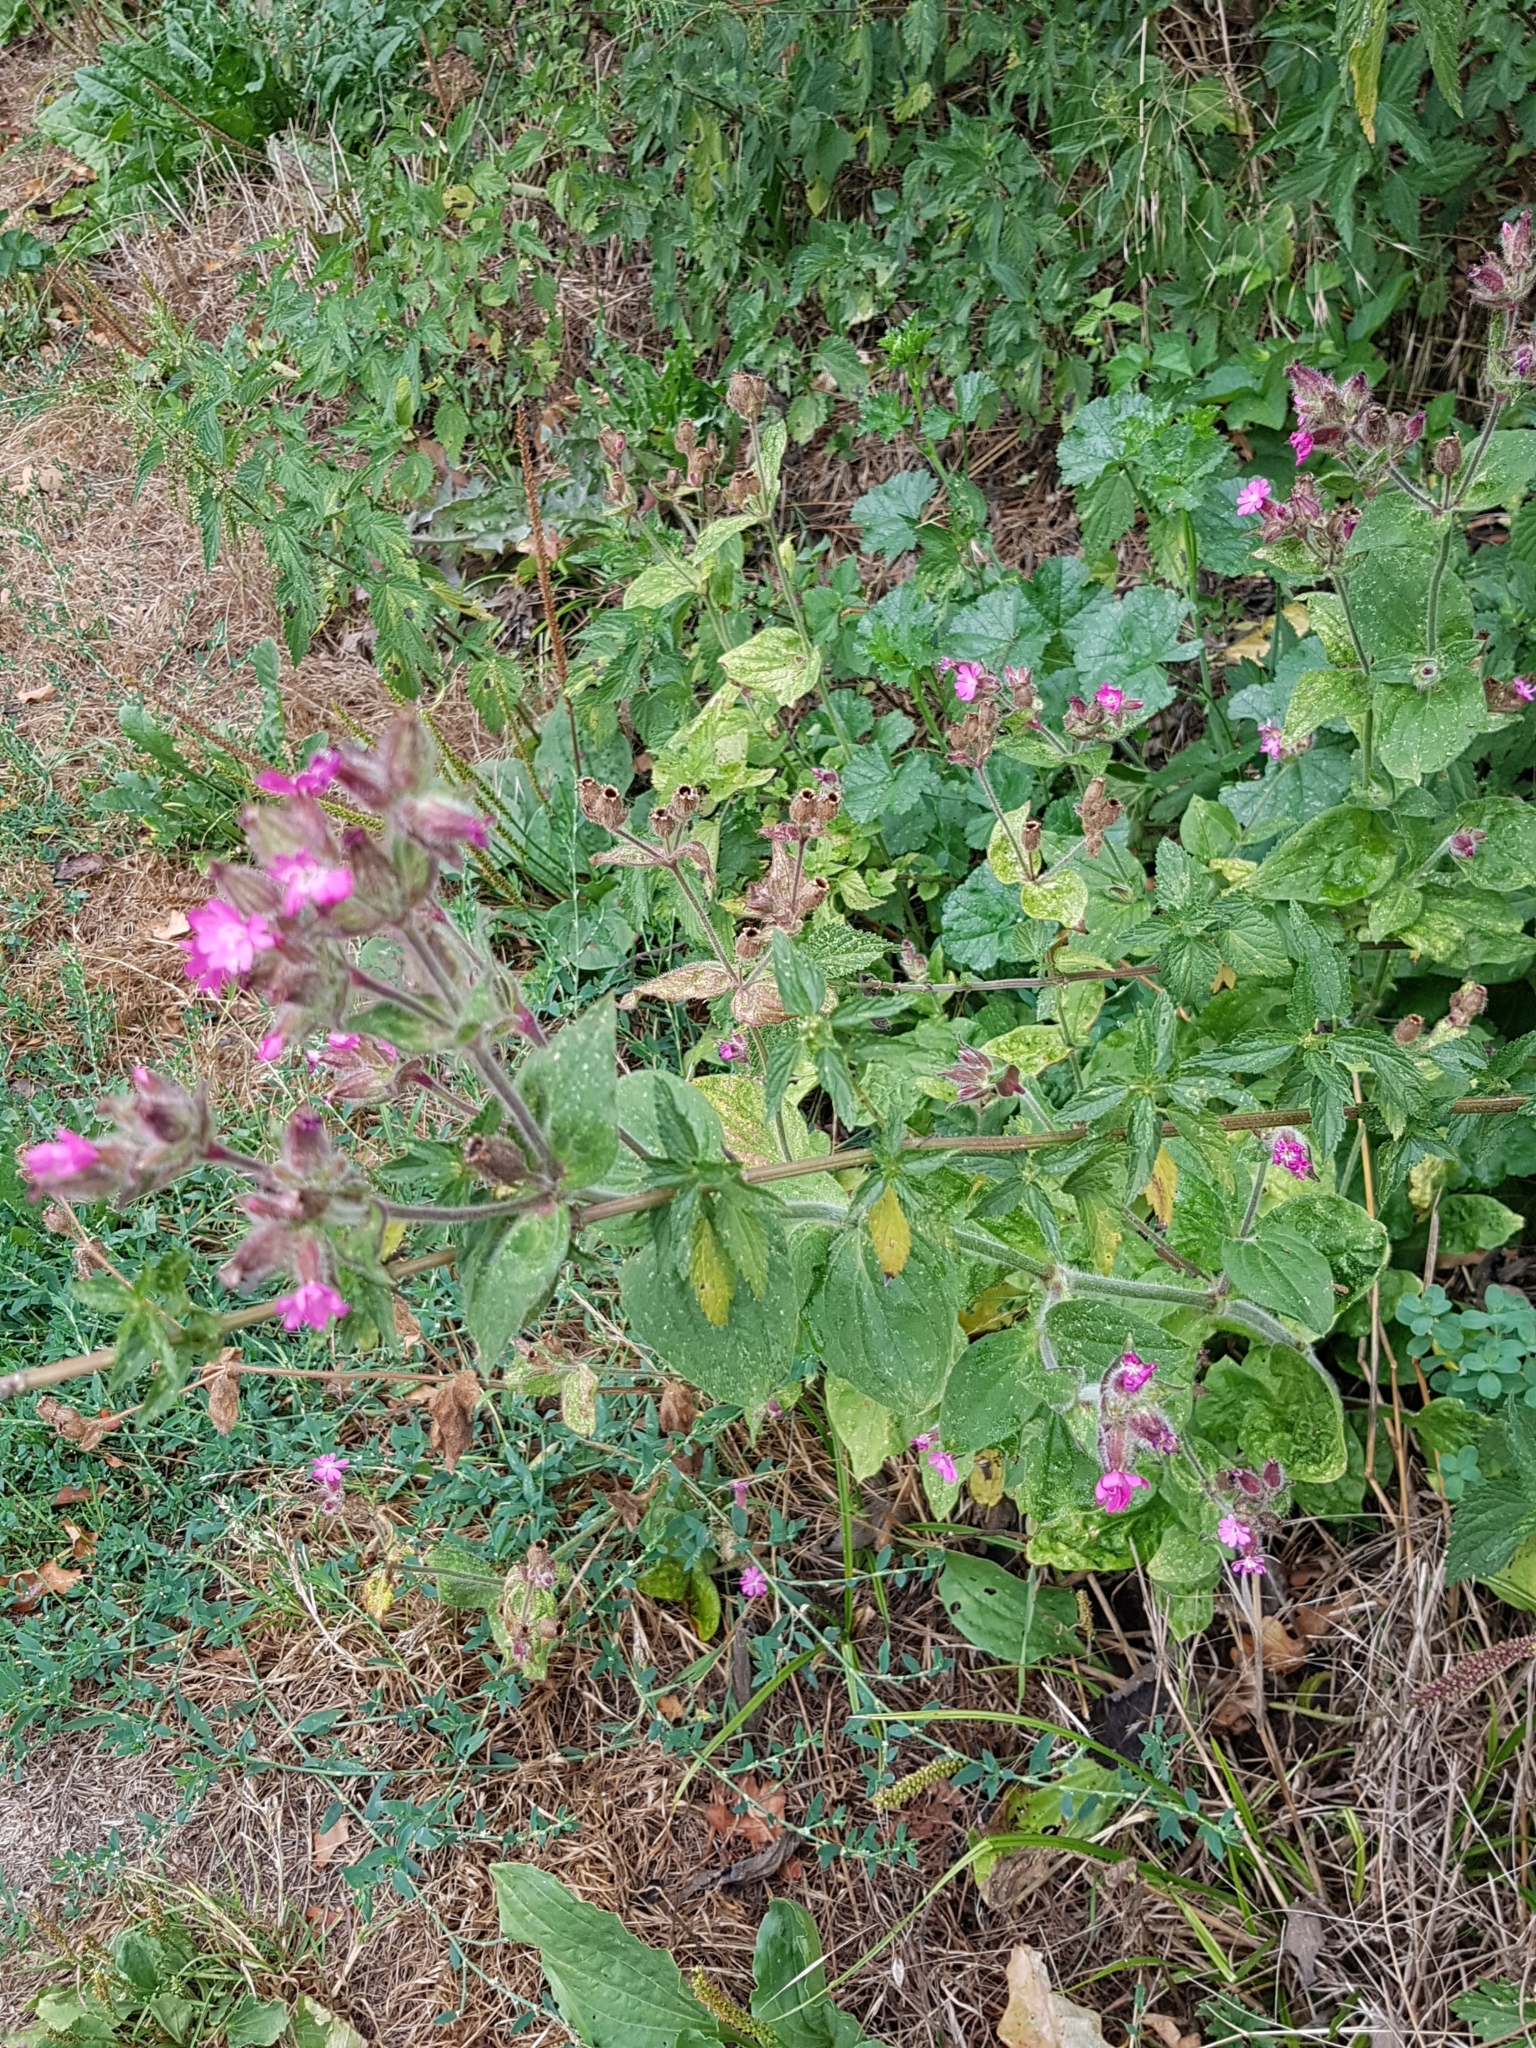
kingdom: Plantae
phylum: Tracheophyta
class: Magnoliopsida
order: Caryophyllales
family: Caryophyllaceae
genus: Silene
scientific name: Silene dioica
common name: Red campion
